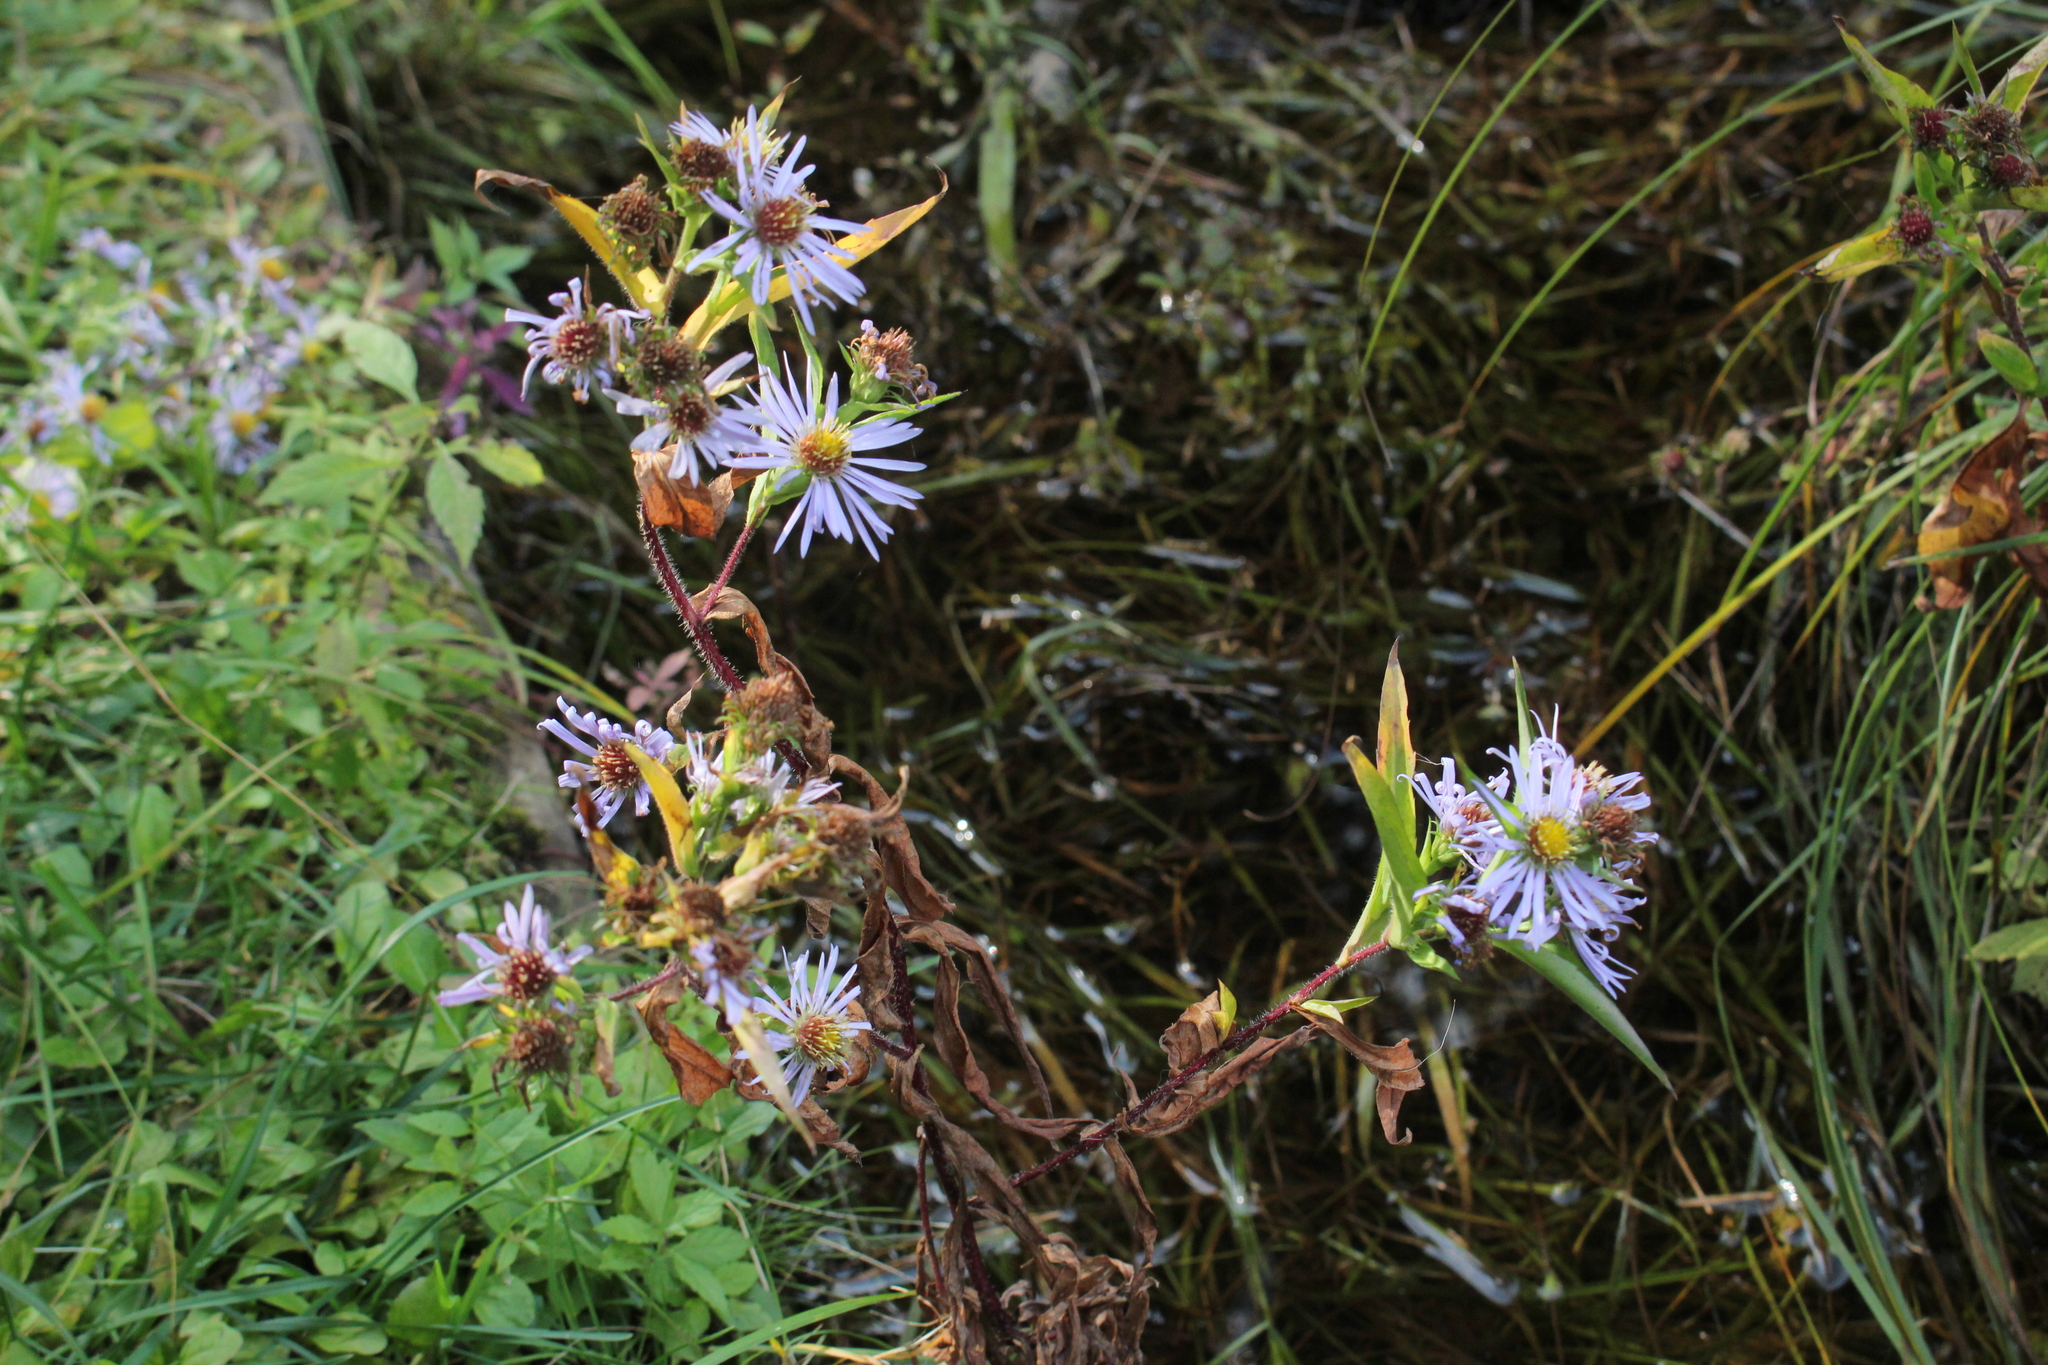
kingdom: Plantae
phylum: Tracheophyta
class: Magnoliopsida
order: Asterales
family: Asteraceae
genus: Symphyotrichum
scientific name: Symphyotrichum puniceum
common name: Bog aster
